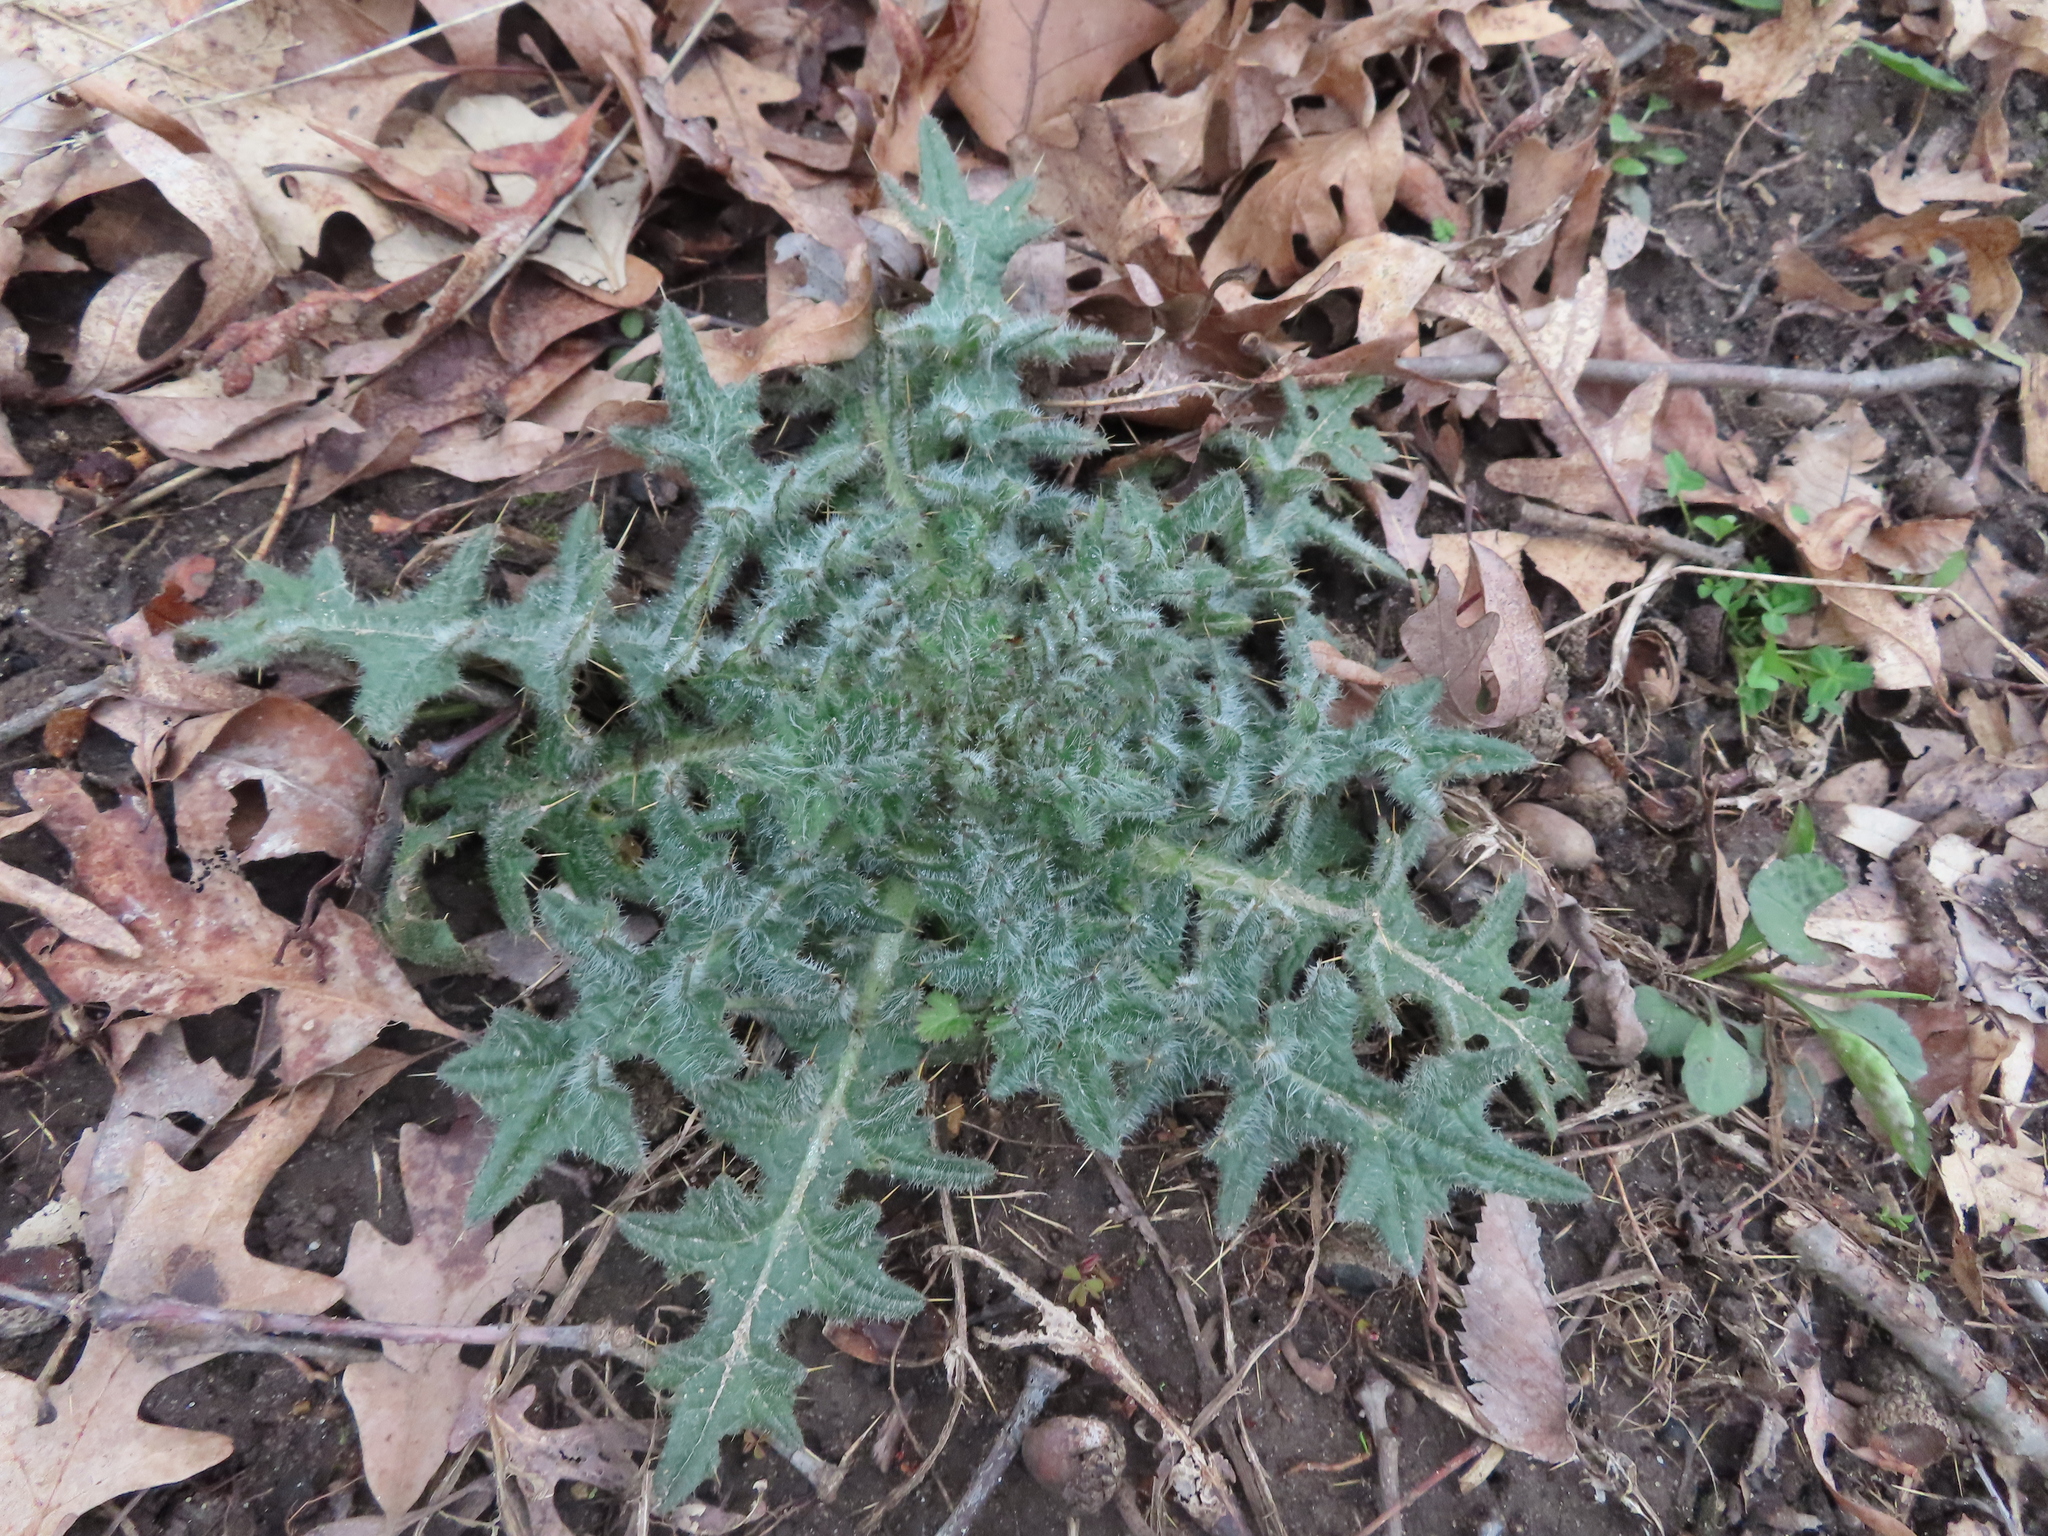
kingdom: Plantae
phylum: Tracheophyta
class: Magnoliopsida
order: Asterales
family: Asteraceae
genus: Cirsium
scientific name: Cirsium vulgare
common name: Bull thistle
